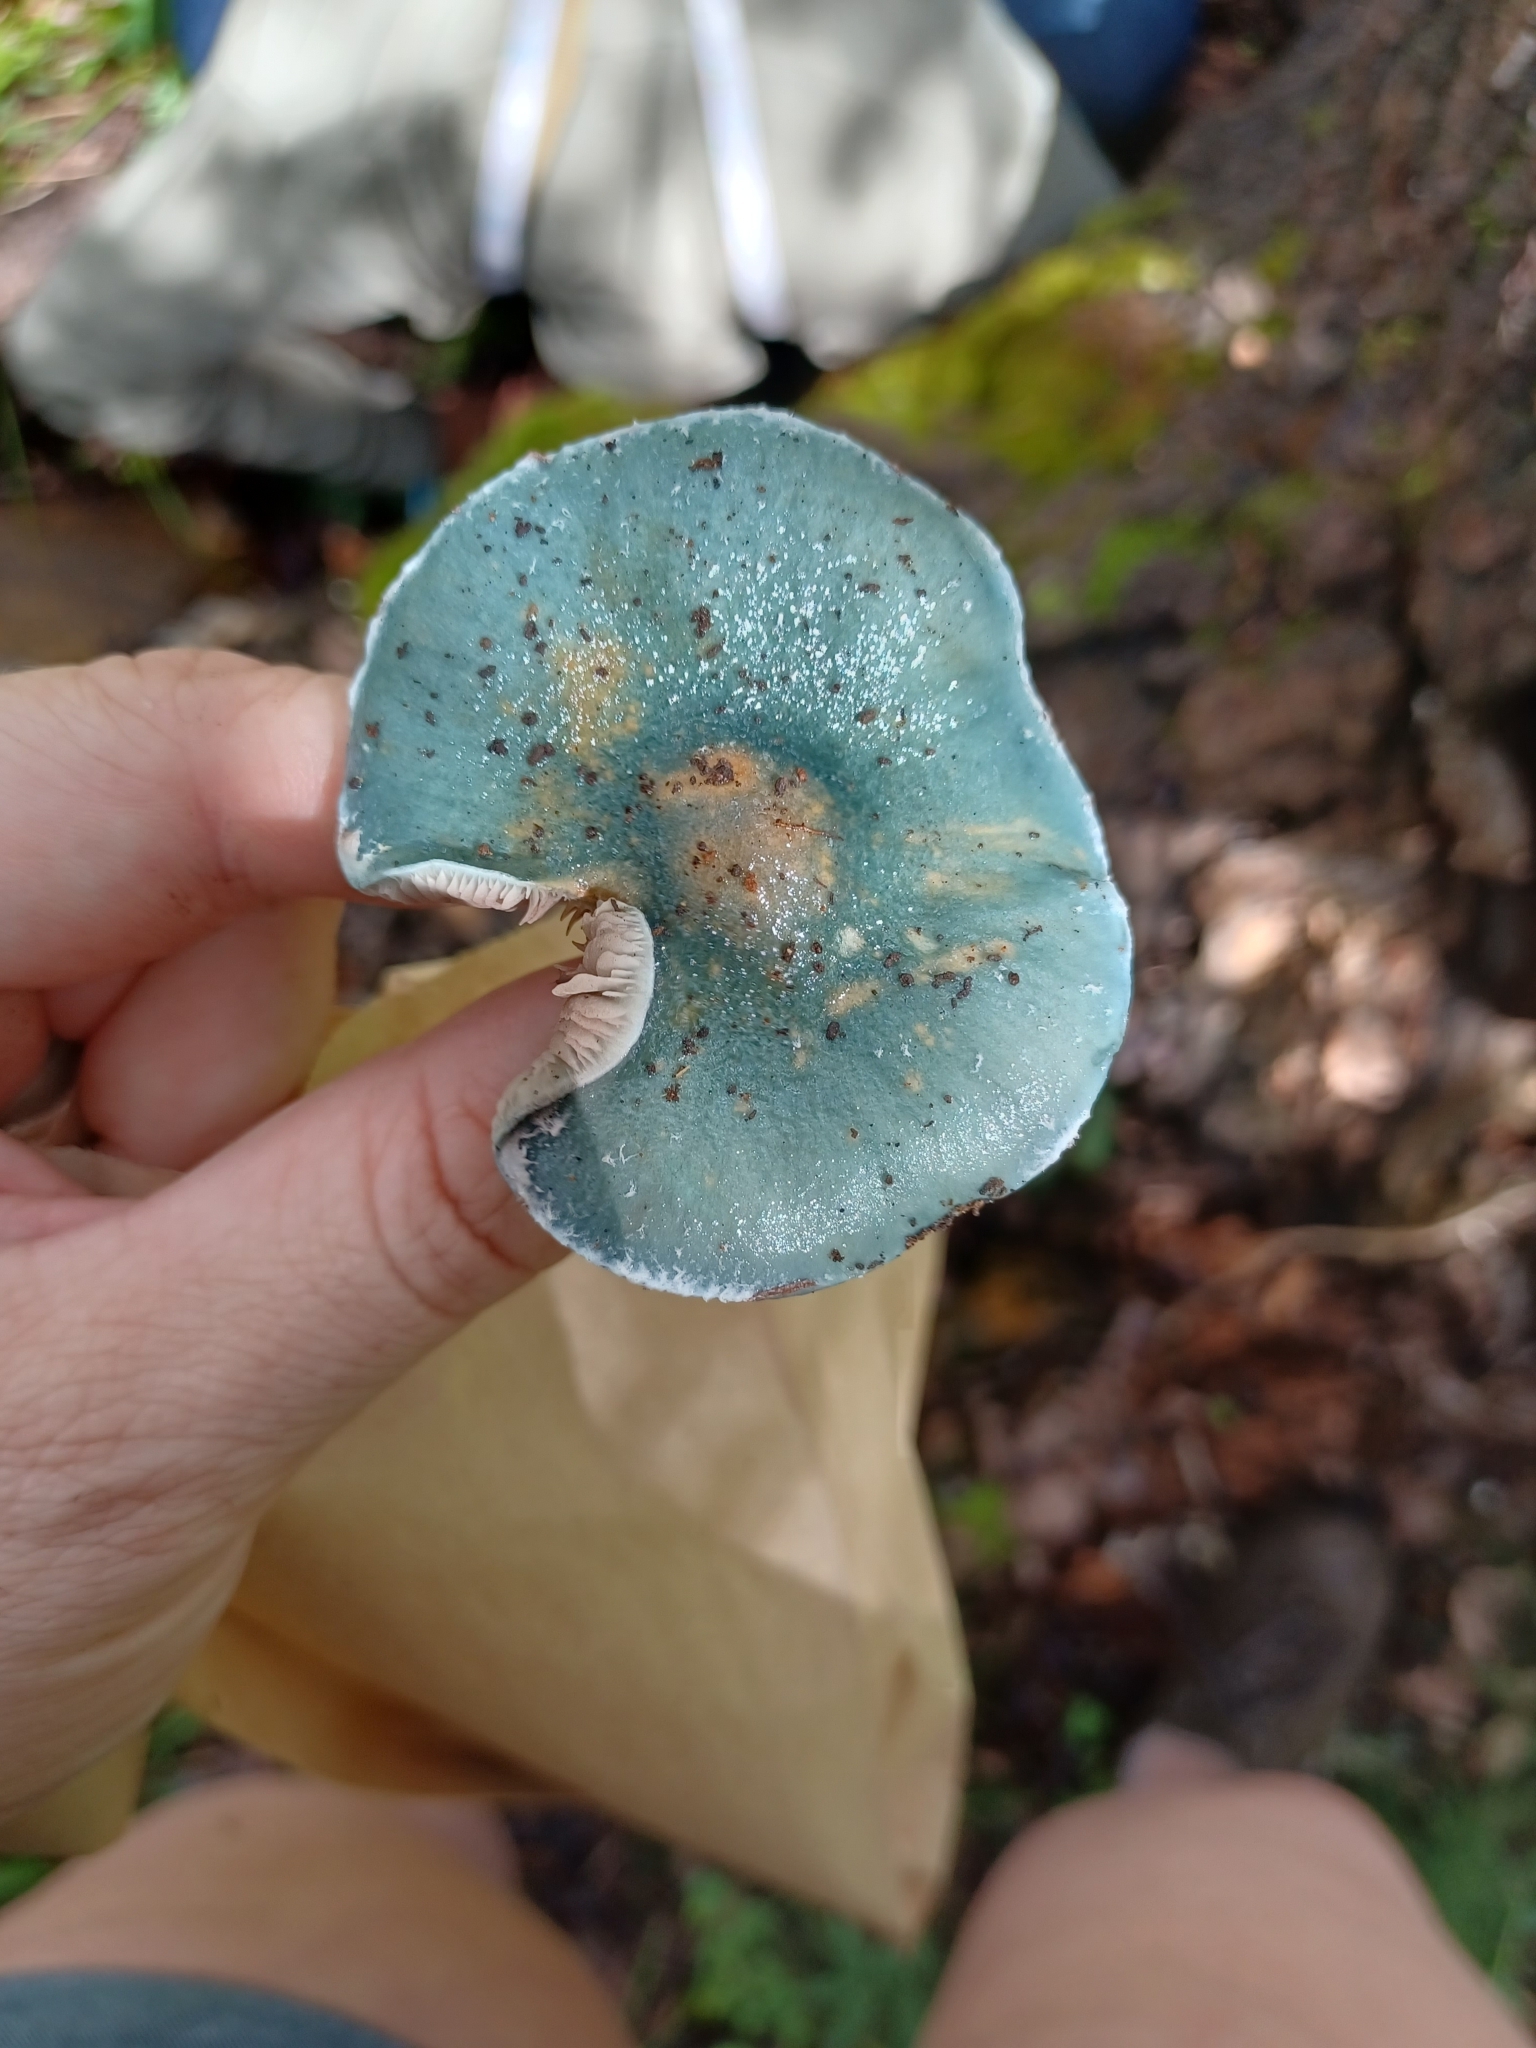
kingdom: Fungi
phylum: Basidiomycota
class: Agaricomycetes
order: Agaricales
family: Strophariaceae
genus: Stropharia
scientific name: Stropharia aeruginosa
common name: Verdigris roundhead
